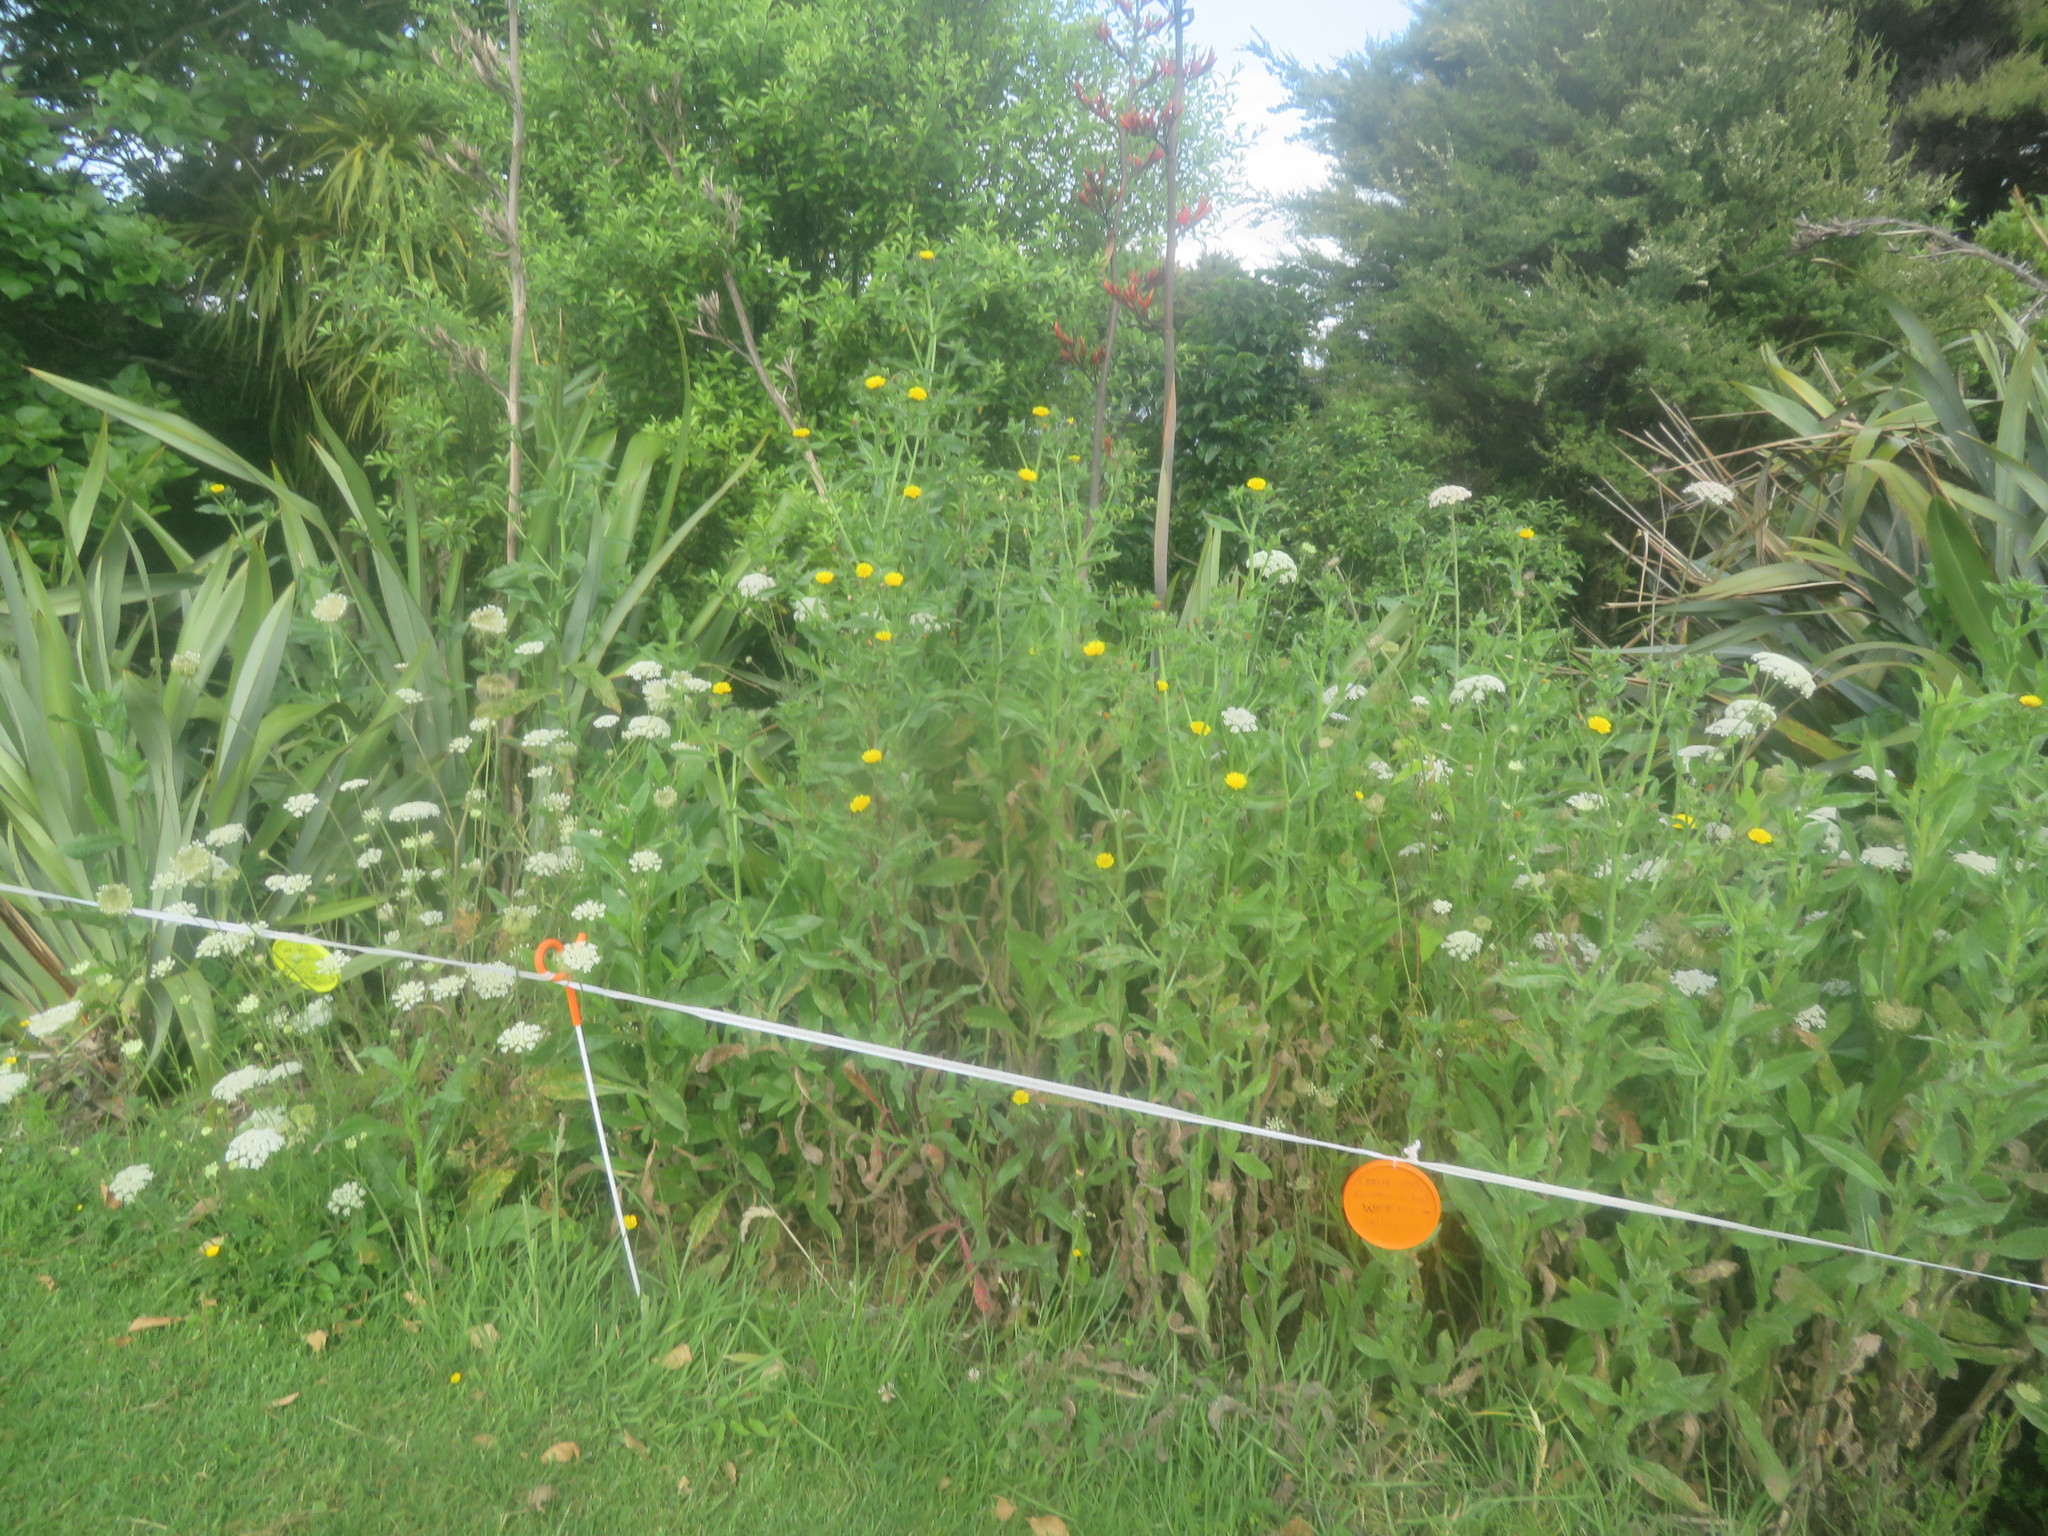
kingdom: Plantae
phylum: Tracheophyta
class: Magnoliopsida
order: Asterales
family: Asteraceae
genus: Helminthotheca
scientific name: Helminthotheca echioides
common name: Ox-tongue
